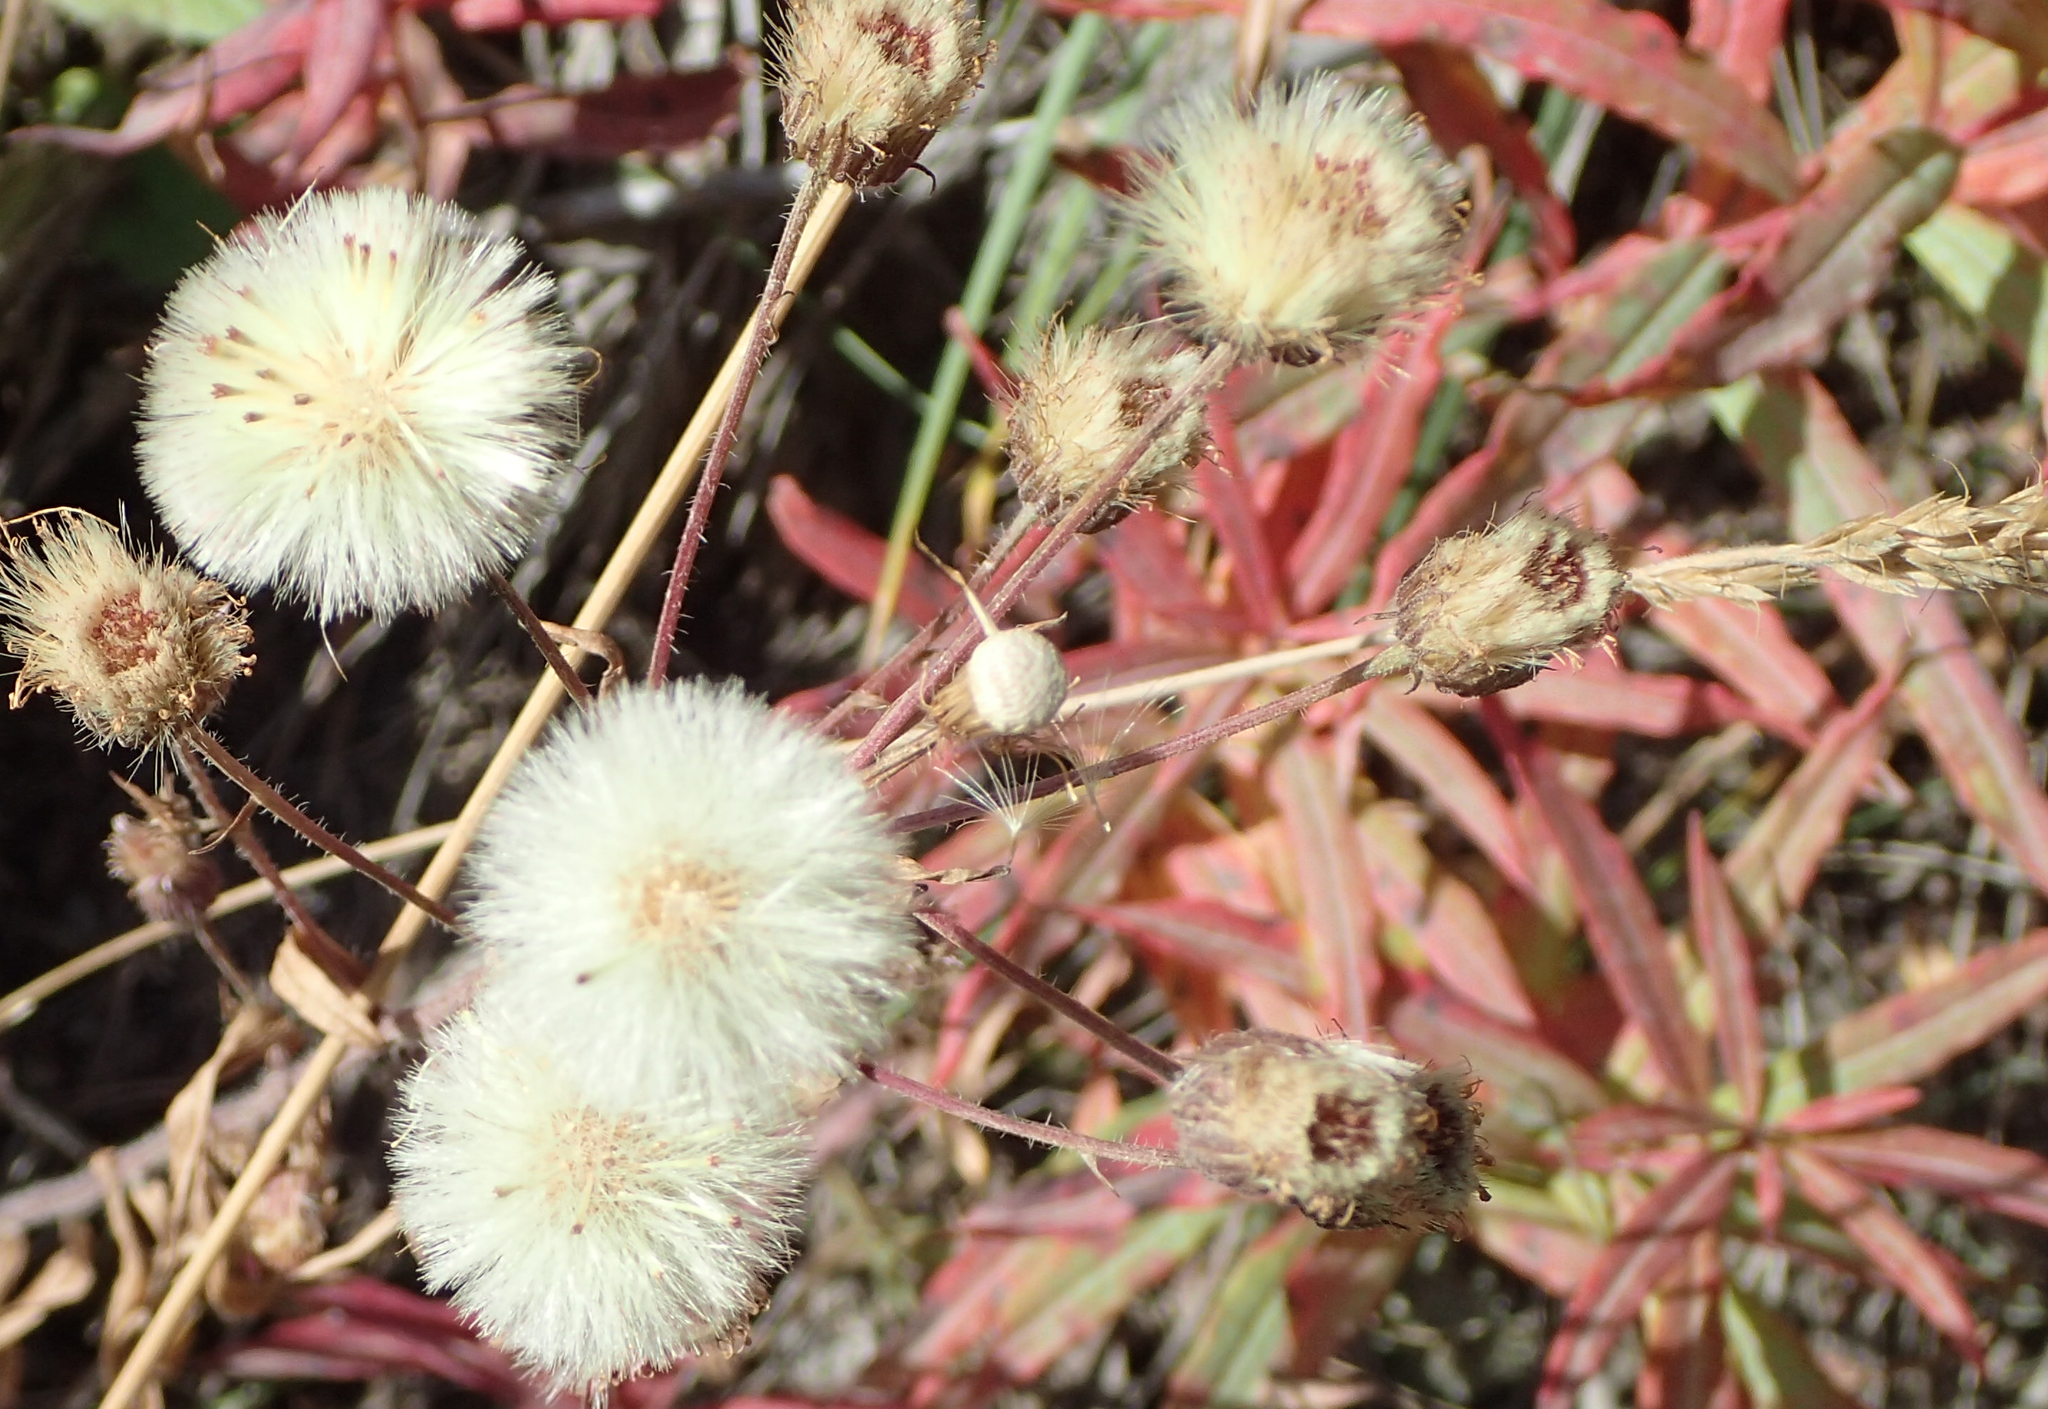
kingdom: Plantae
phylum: Tracheophyta
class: Magnoliopsida
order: Asterales
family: Asteraceae
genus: Erigeron
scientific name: Erigeron acris
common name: Blue fleabane
